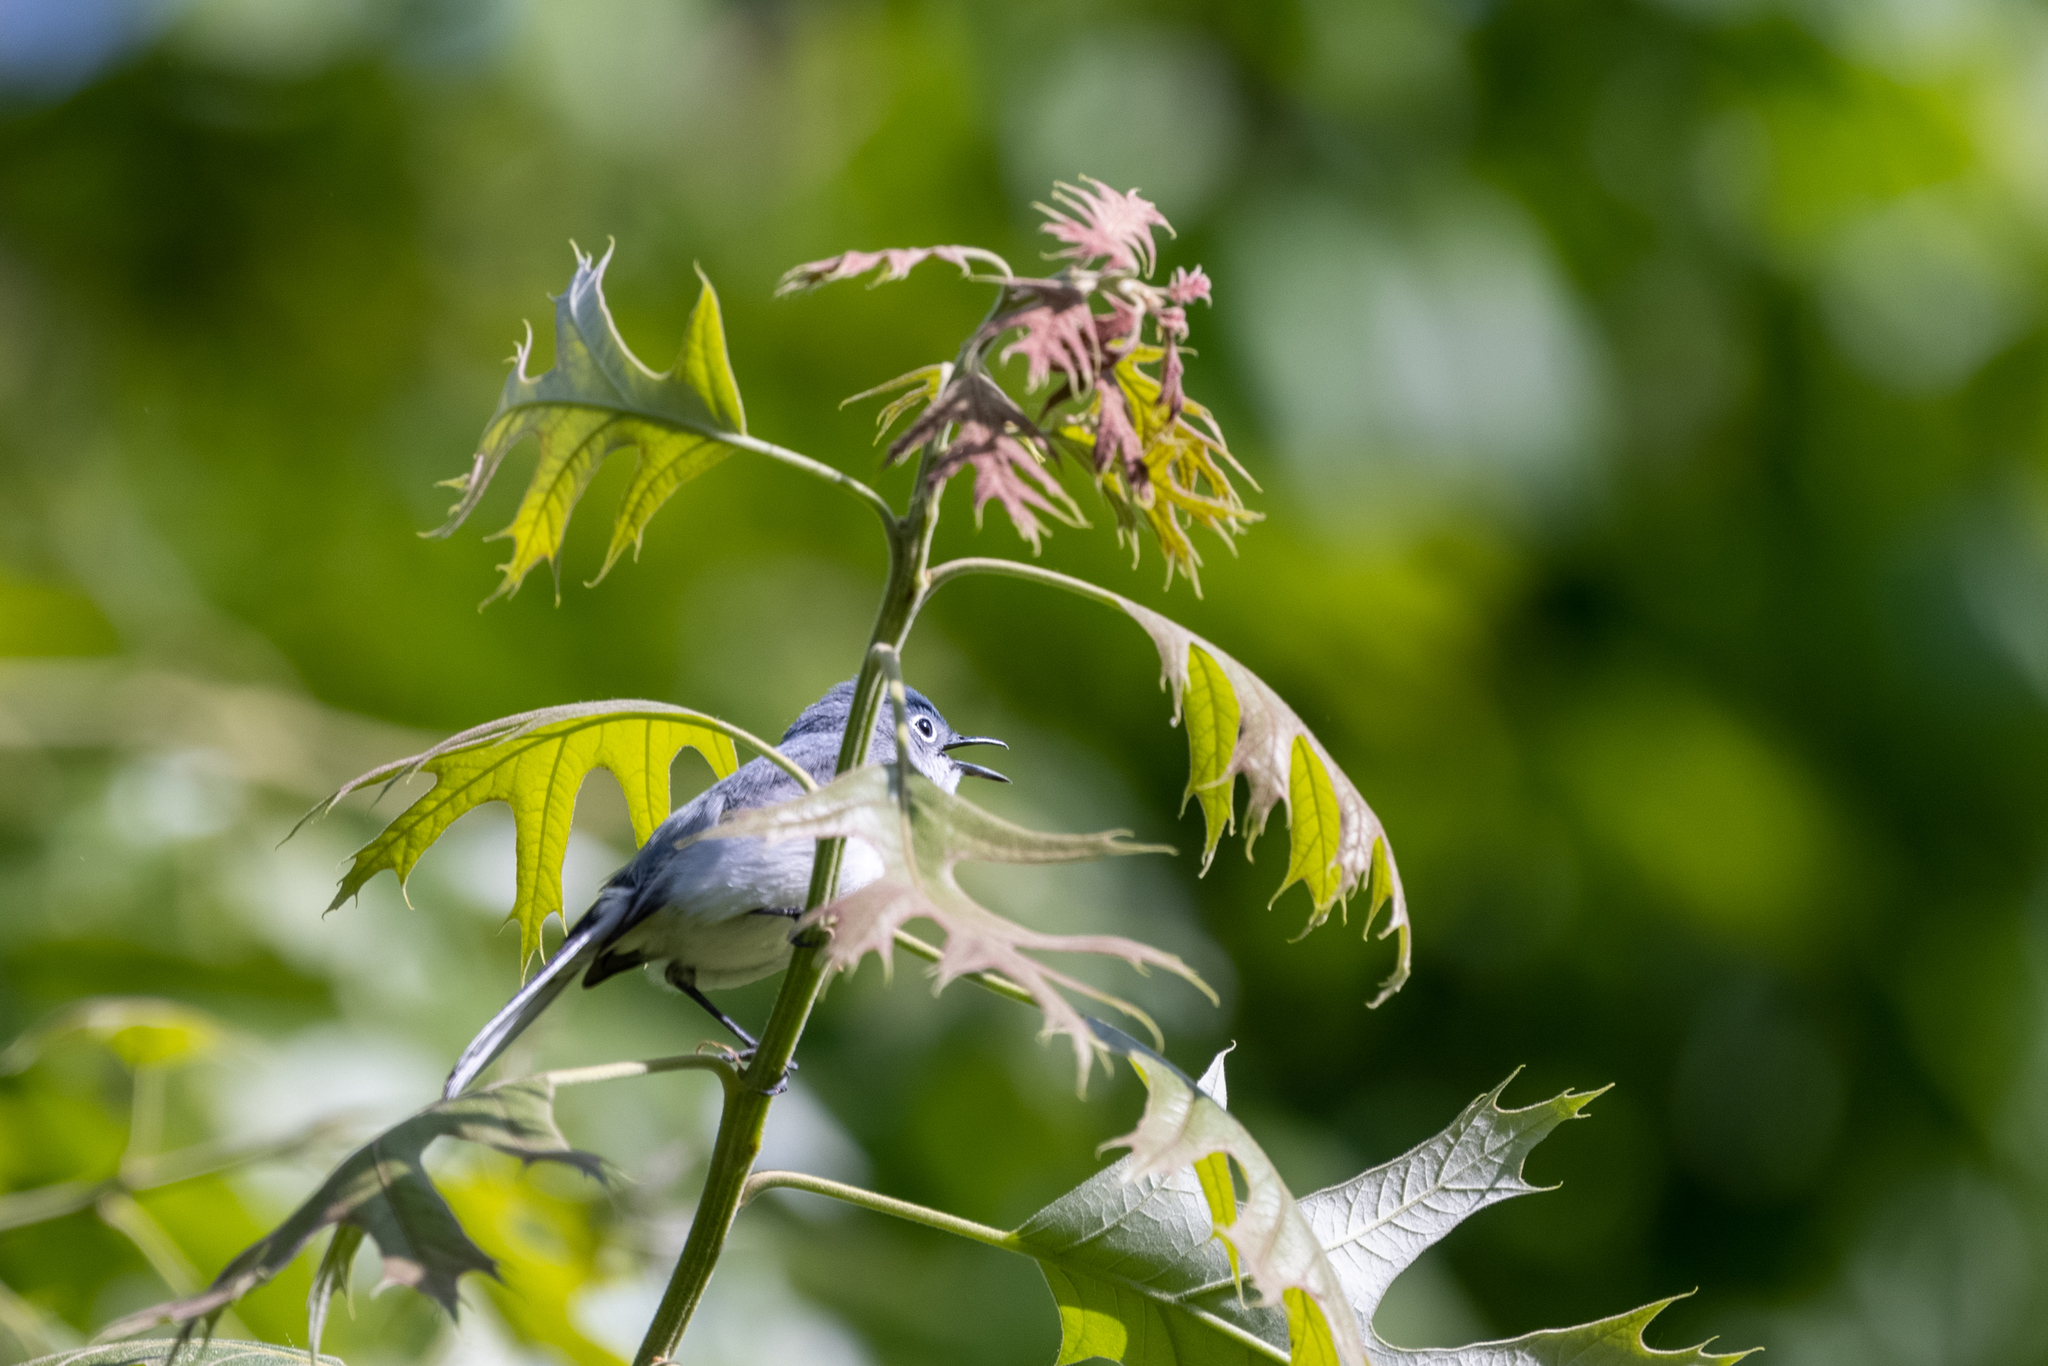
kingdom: Animalia
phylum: Chordata
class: Aves
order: Passeriformes
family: Polioptilidae
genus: Polioptila
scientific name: Polioptila caerulea
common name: Blue-gray gnatcatcher
